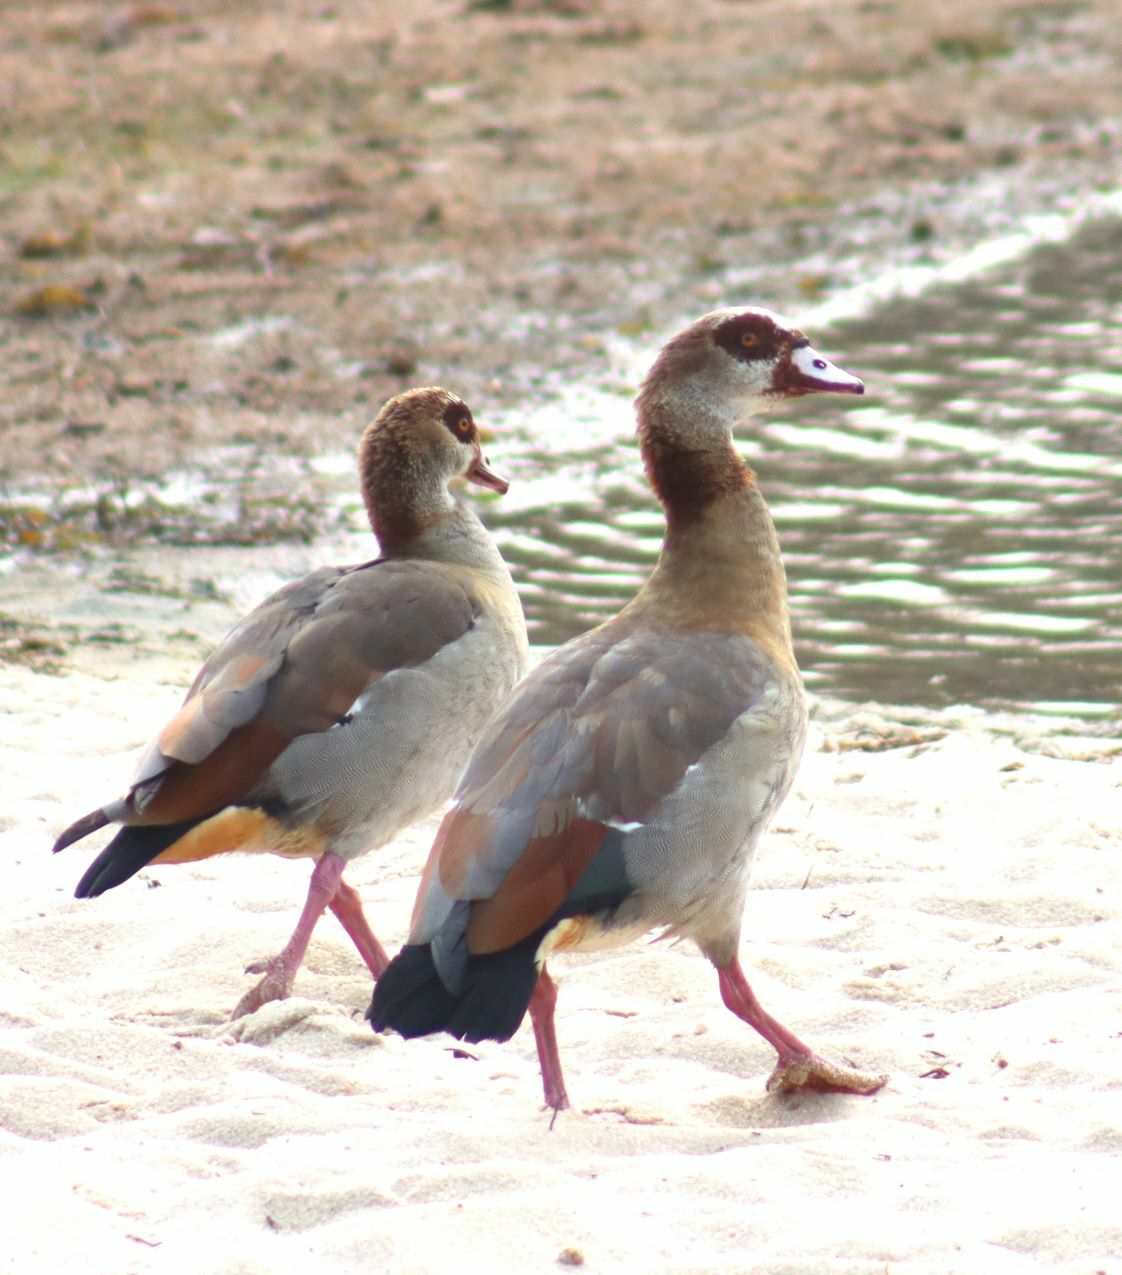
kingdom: Animalia
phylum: Chordata
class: Aves
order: Anseriformes
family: Anatidae
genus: Alopochen
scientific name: Alopochen aegyptiaca
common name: Egyptian goose
